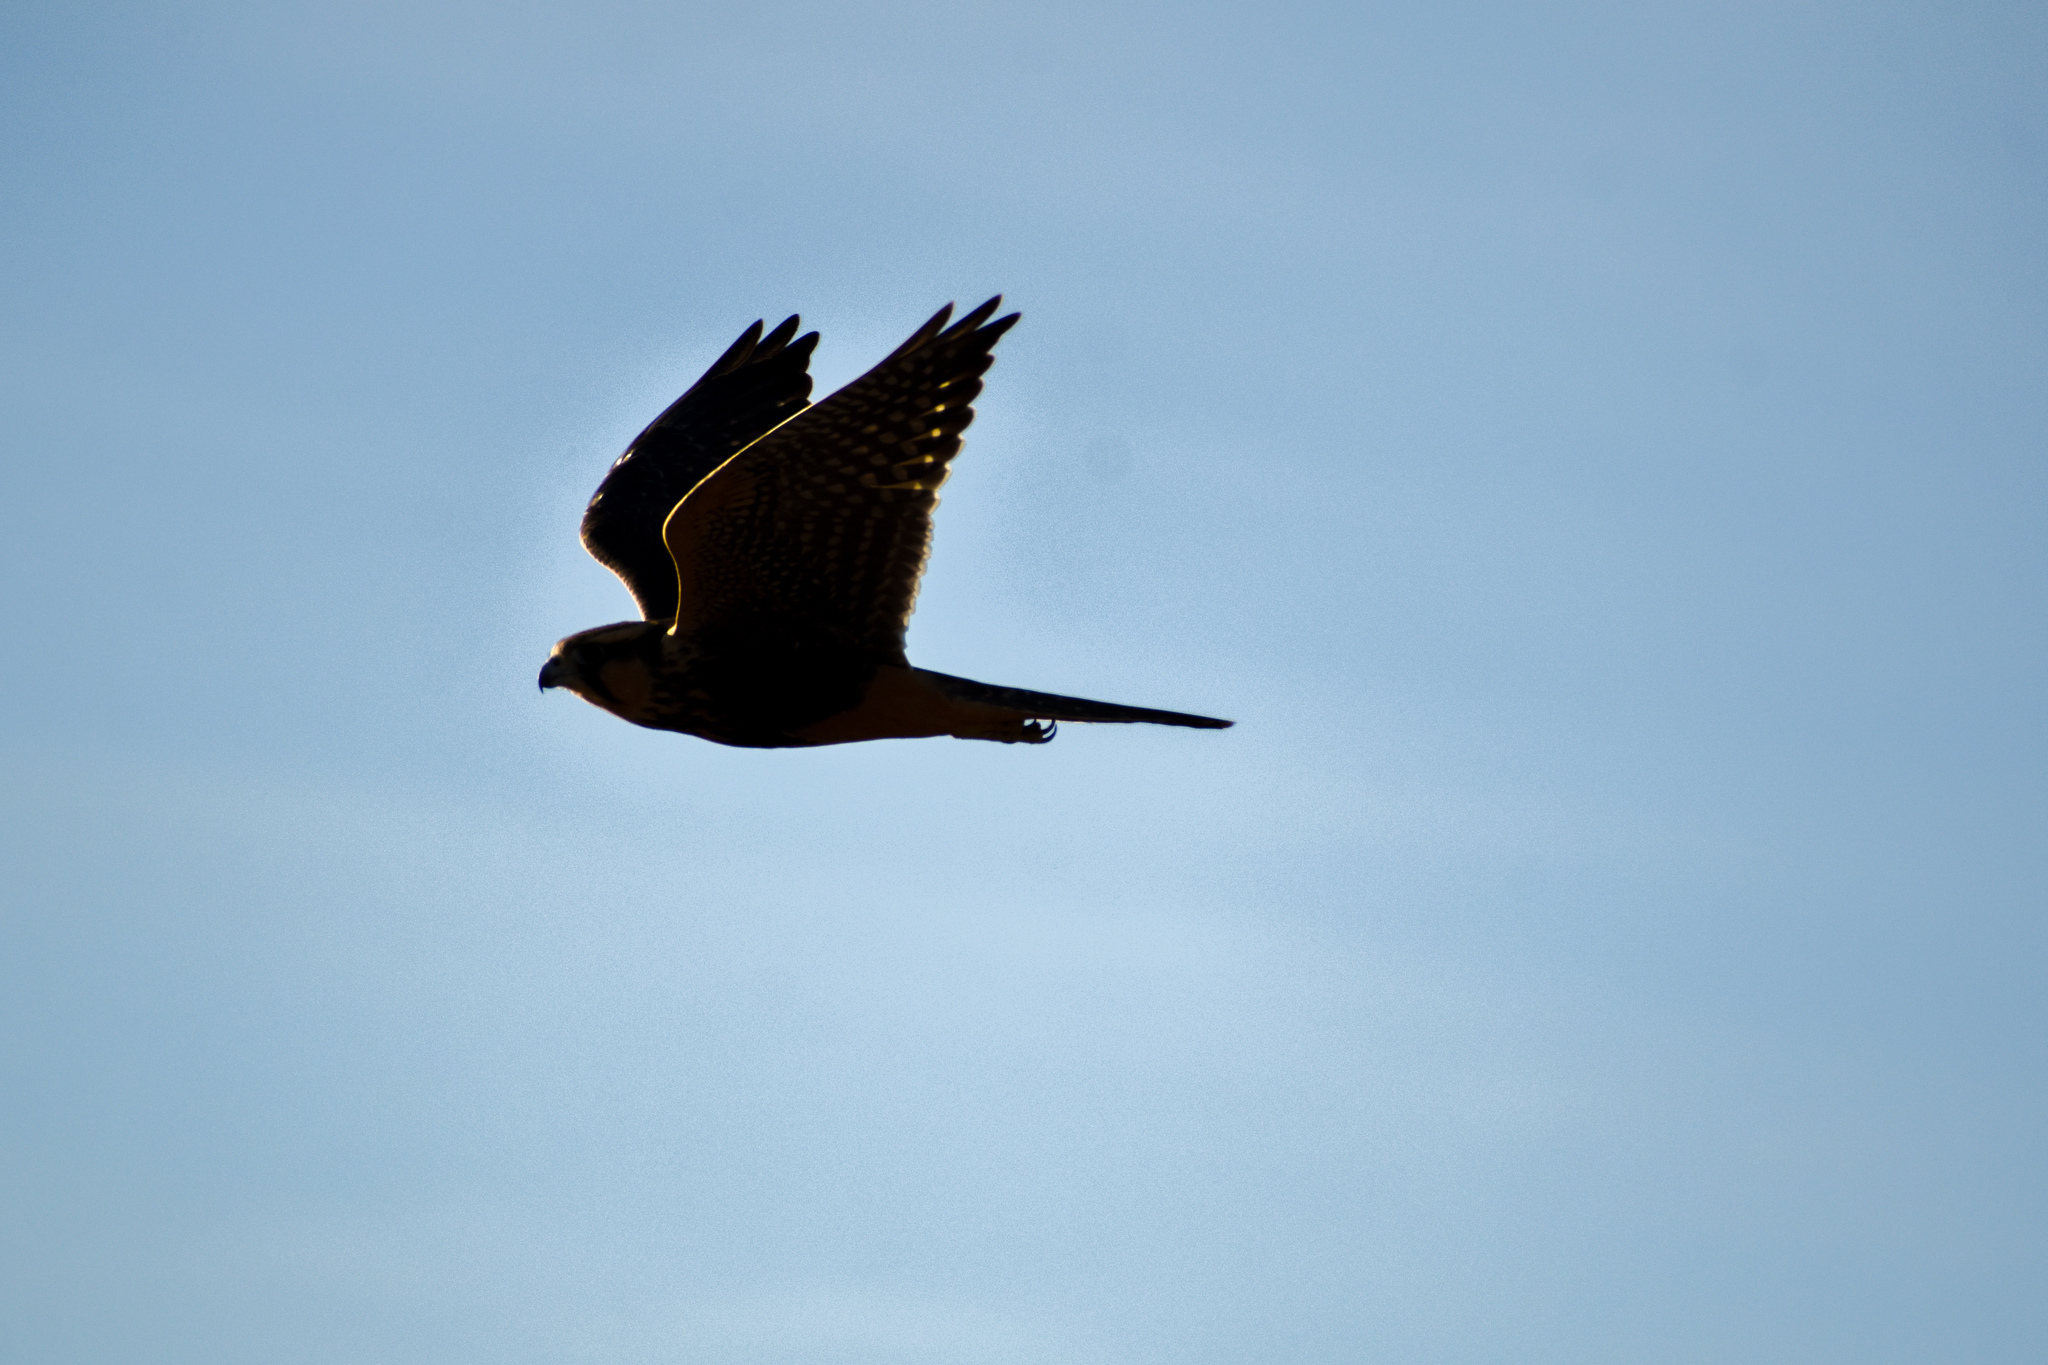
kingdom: Animalia
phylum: Chordata
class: Aves
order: Falconiformes
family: Falconidae
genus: Falco
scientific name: Falco femoralis
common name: Aplomado falcon
